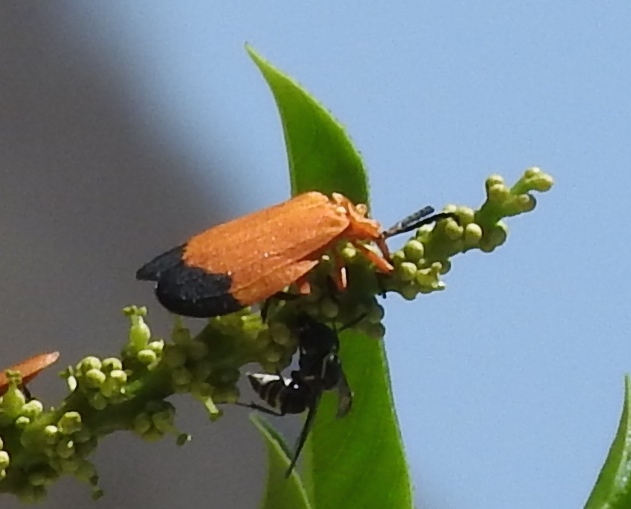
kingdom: Animalia
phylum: Arthropoda
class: Insecta
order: Coleoptera
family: Lycidae
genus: Lycus
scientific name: Lycus
